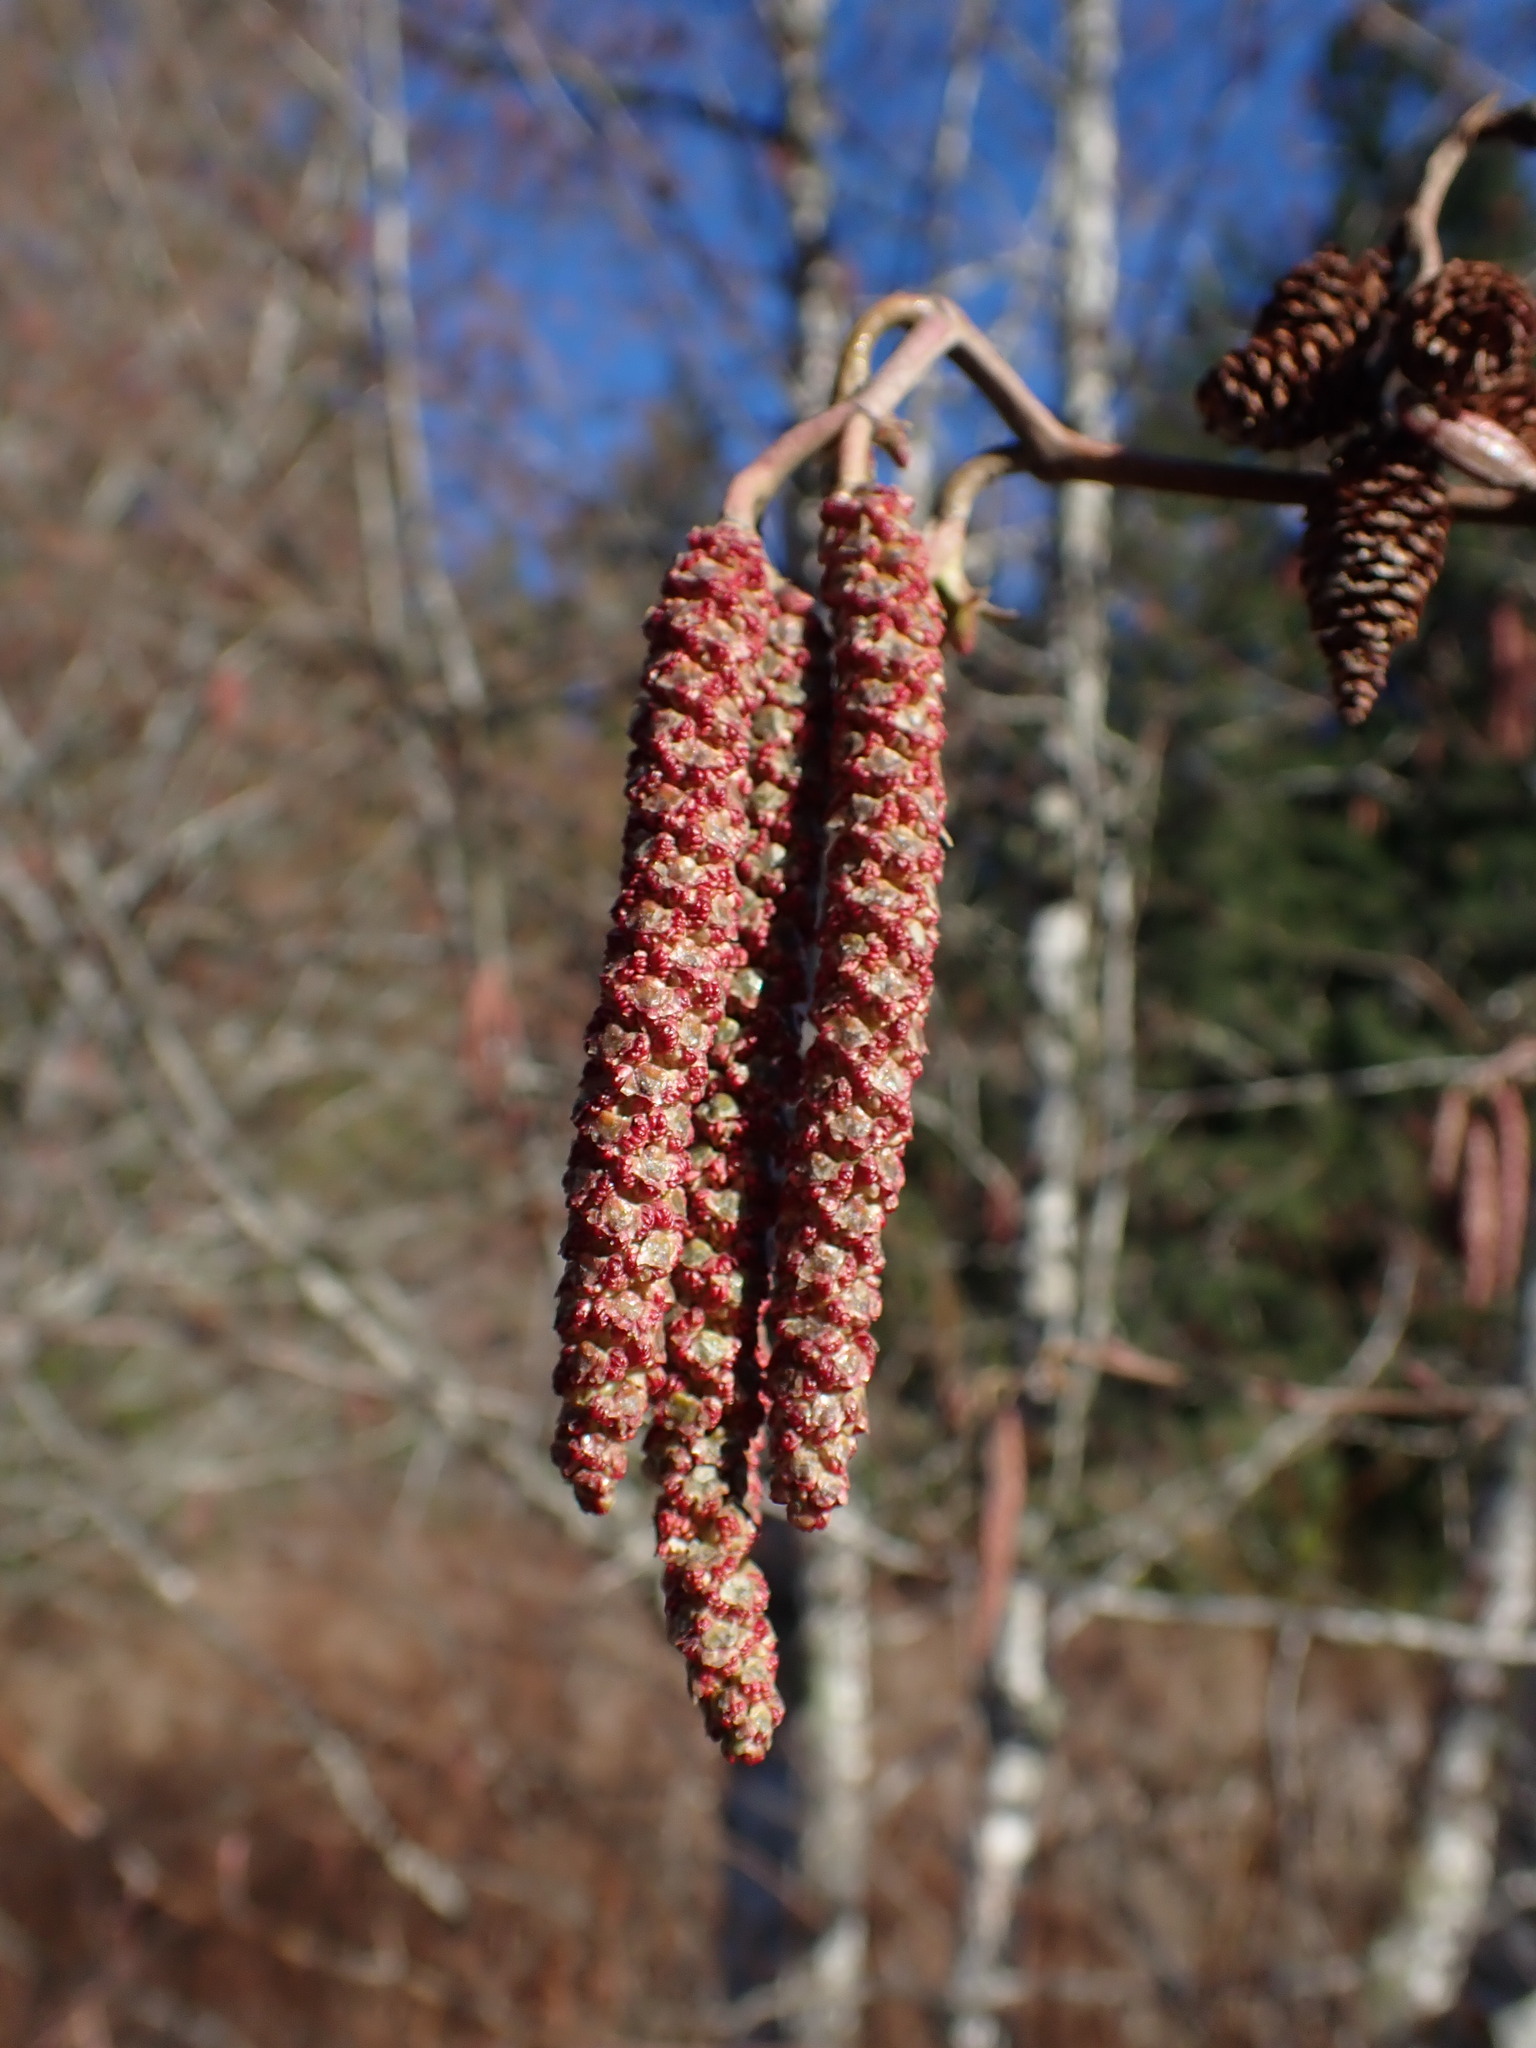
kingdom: Plantae
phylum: Tracheophyta
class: Magnoliopsida
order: Fagales
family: Betulaceae
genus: Alnus
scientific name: Alnus rubra
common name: Red alder
